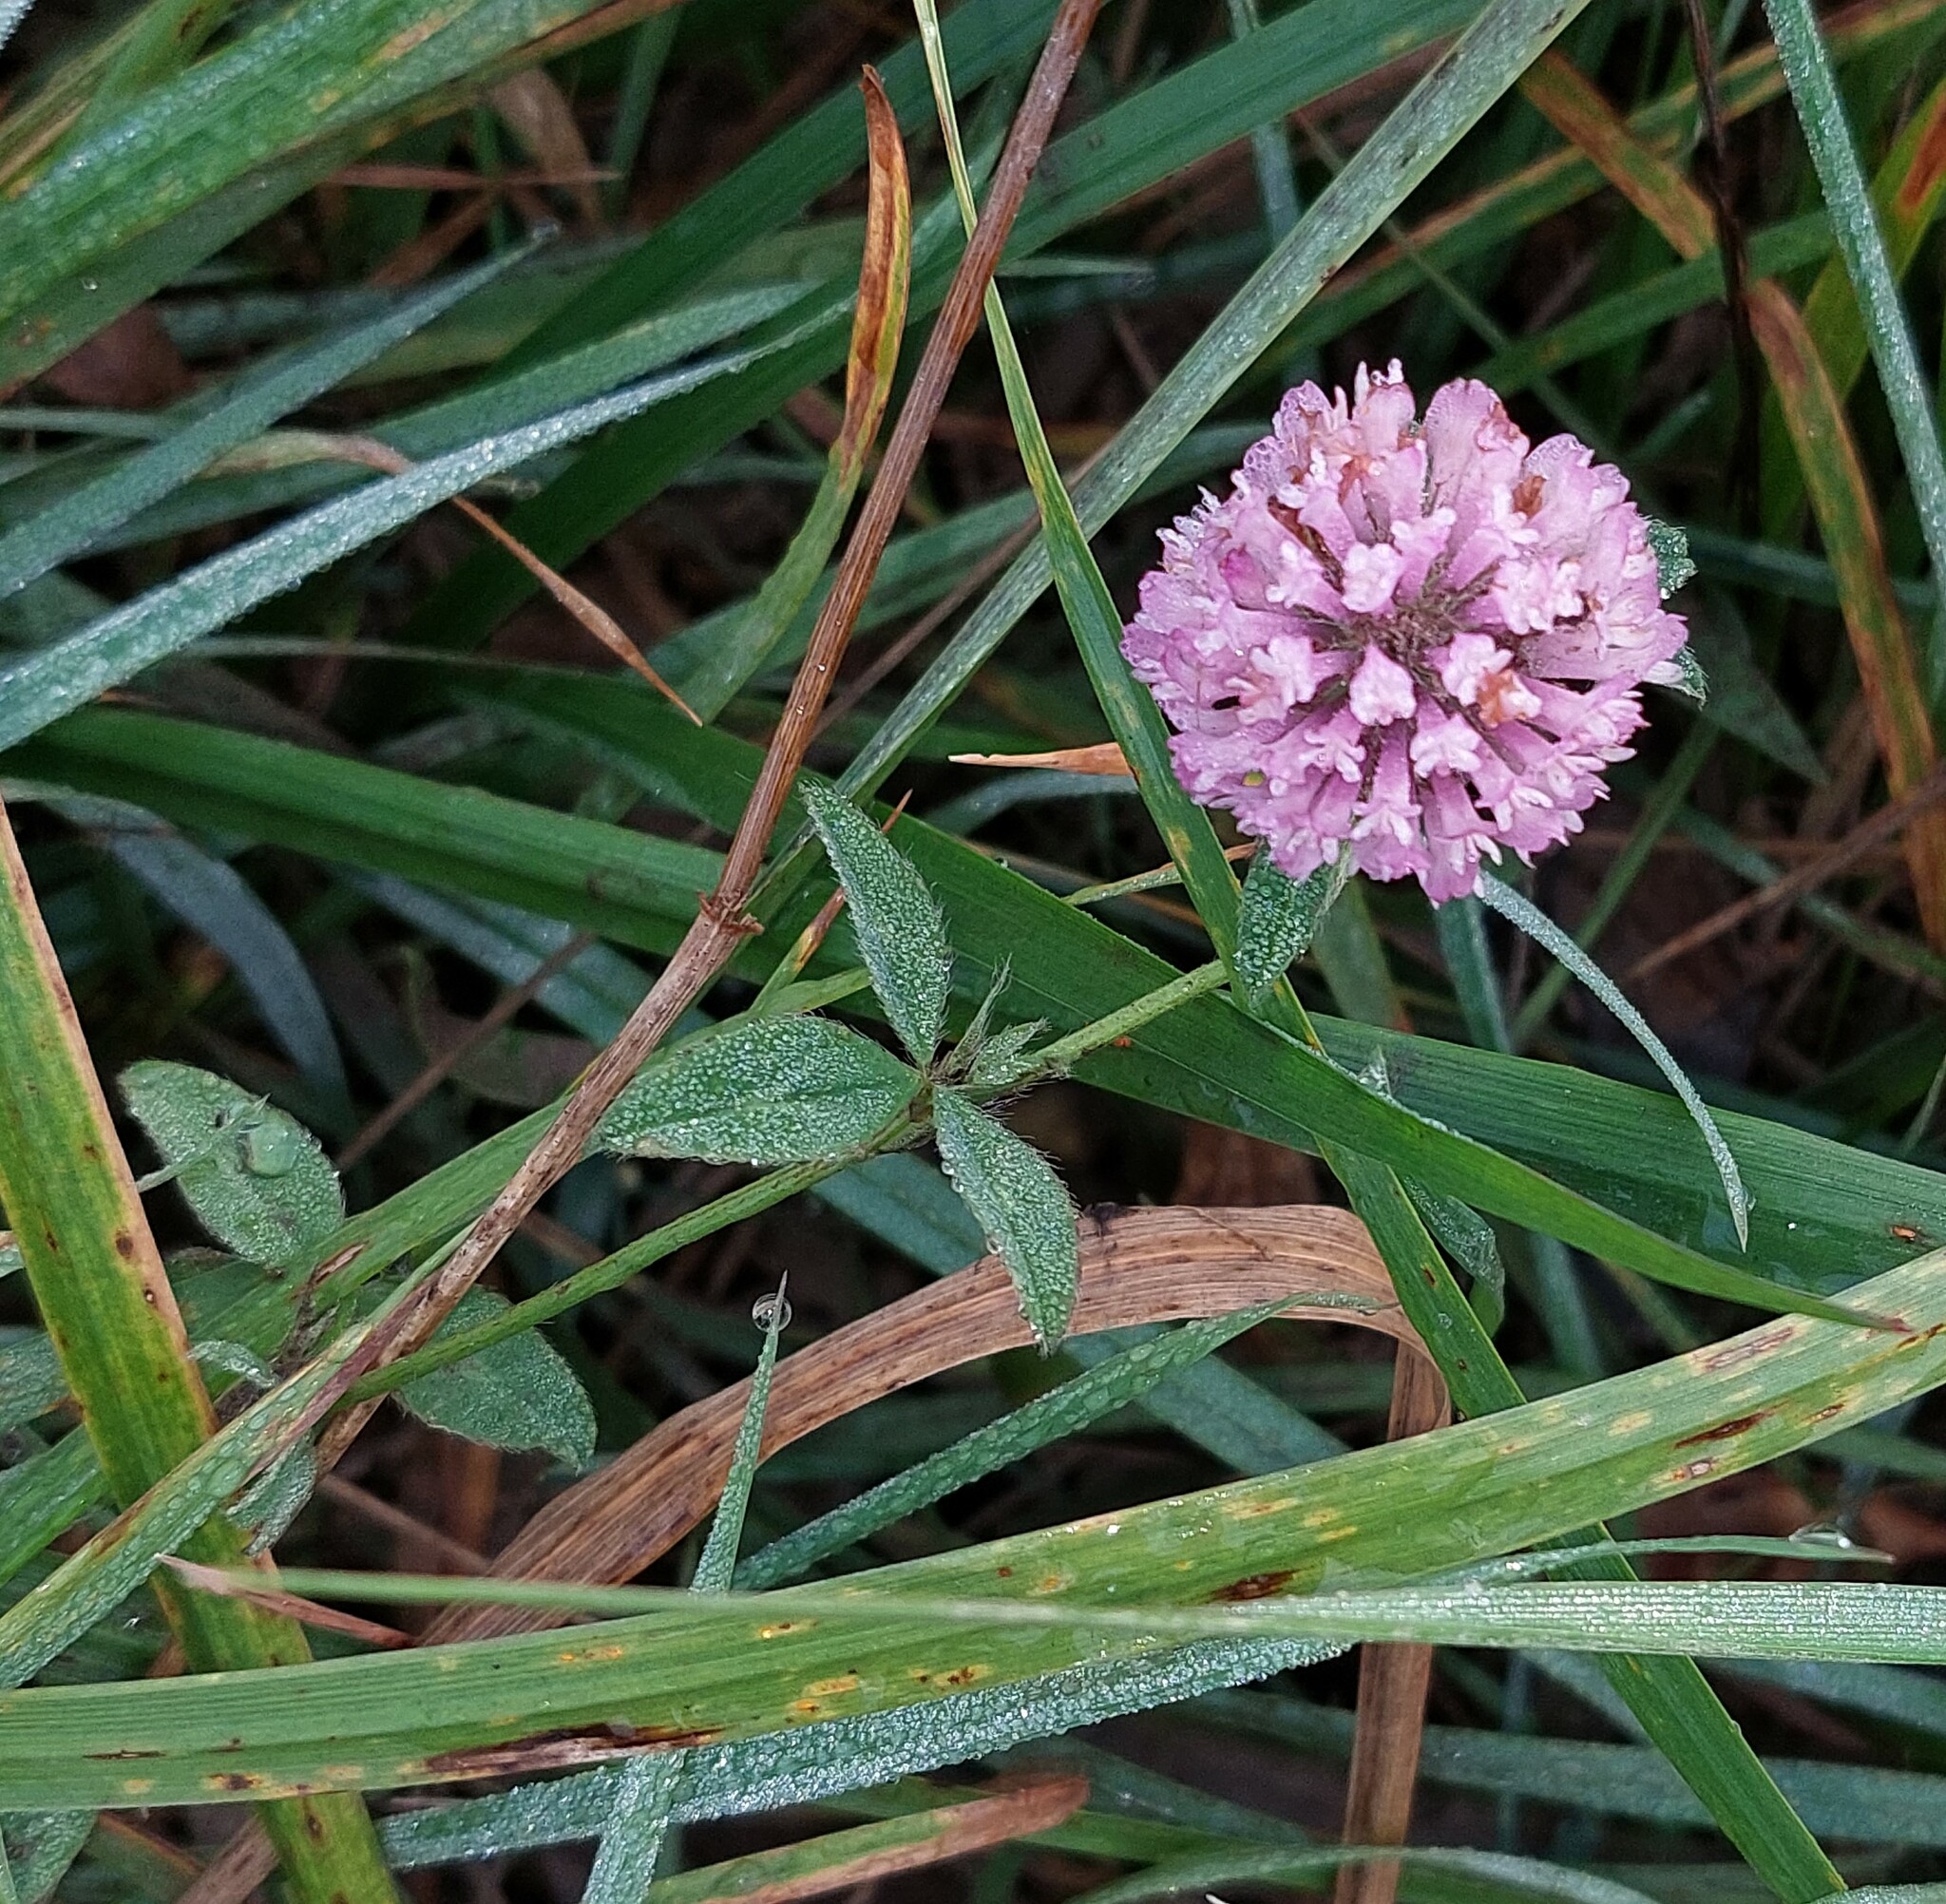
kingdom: Plantae
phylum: Tracheophyta
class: Magnoliopsida
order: Fabales
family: Fabaceae
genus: Trifolium
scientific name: Trifolium pratense
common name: Red clover
